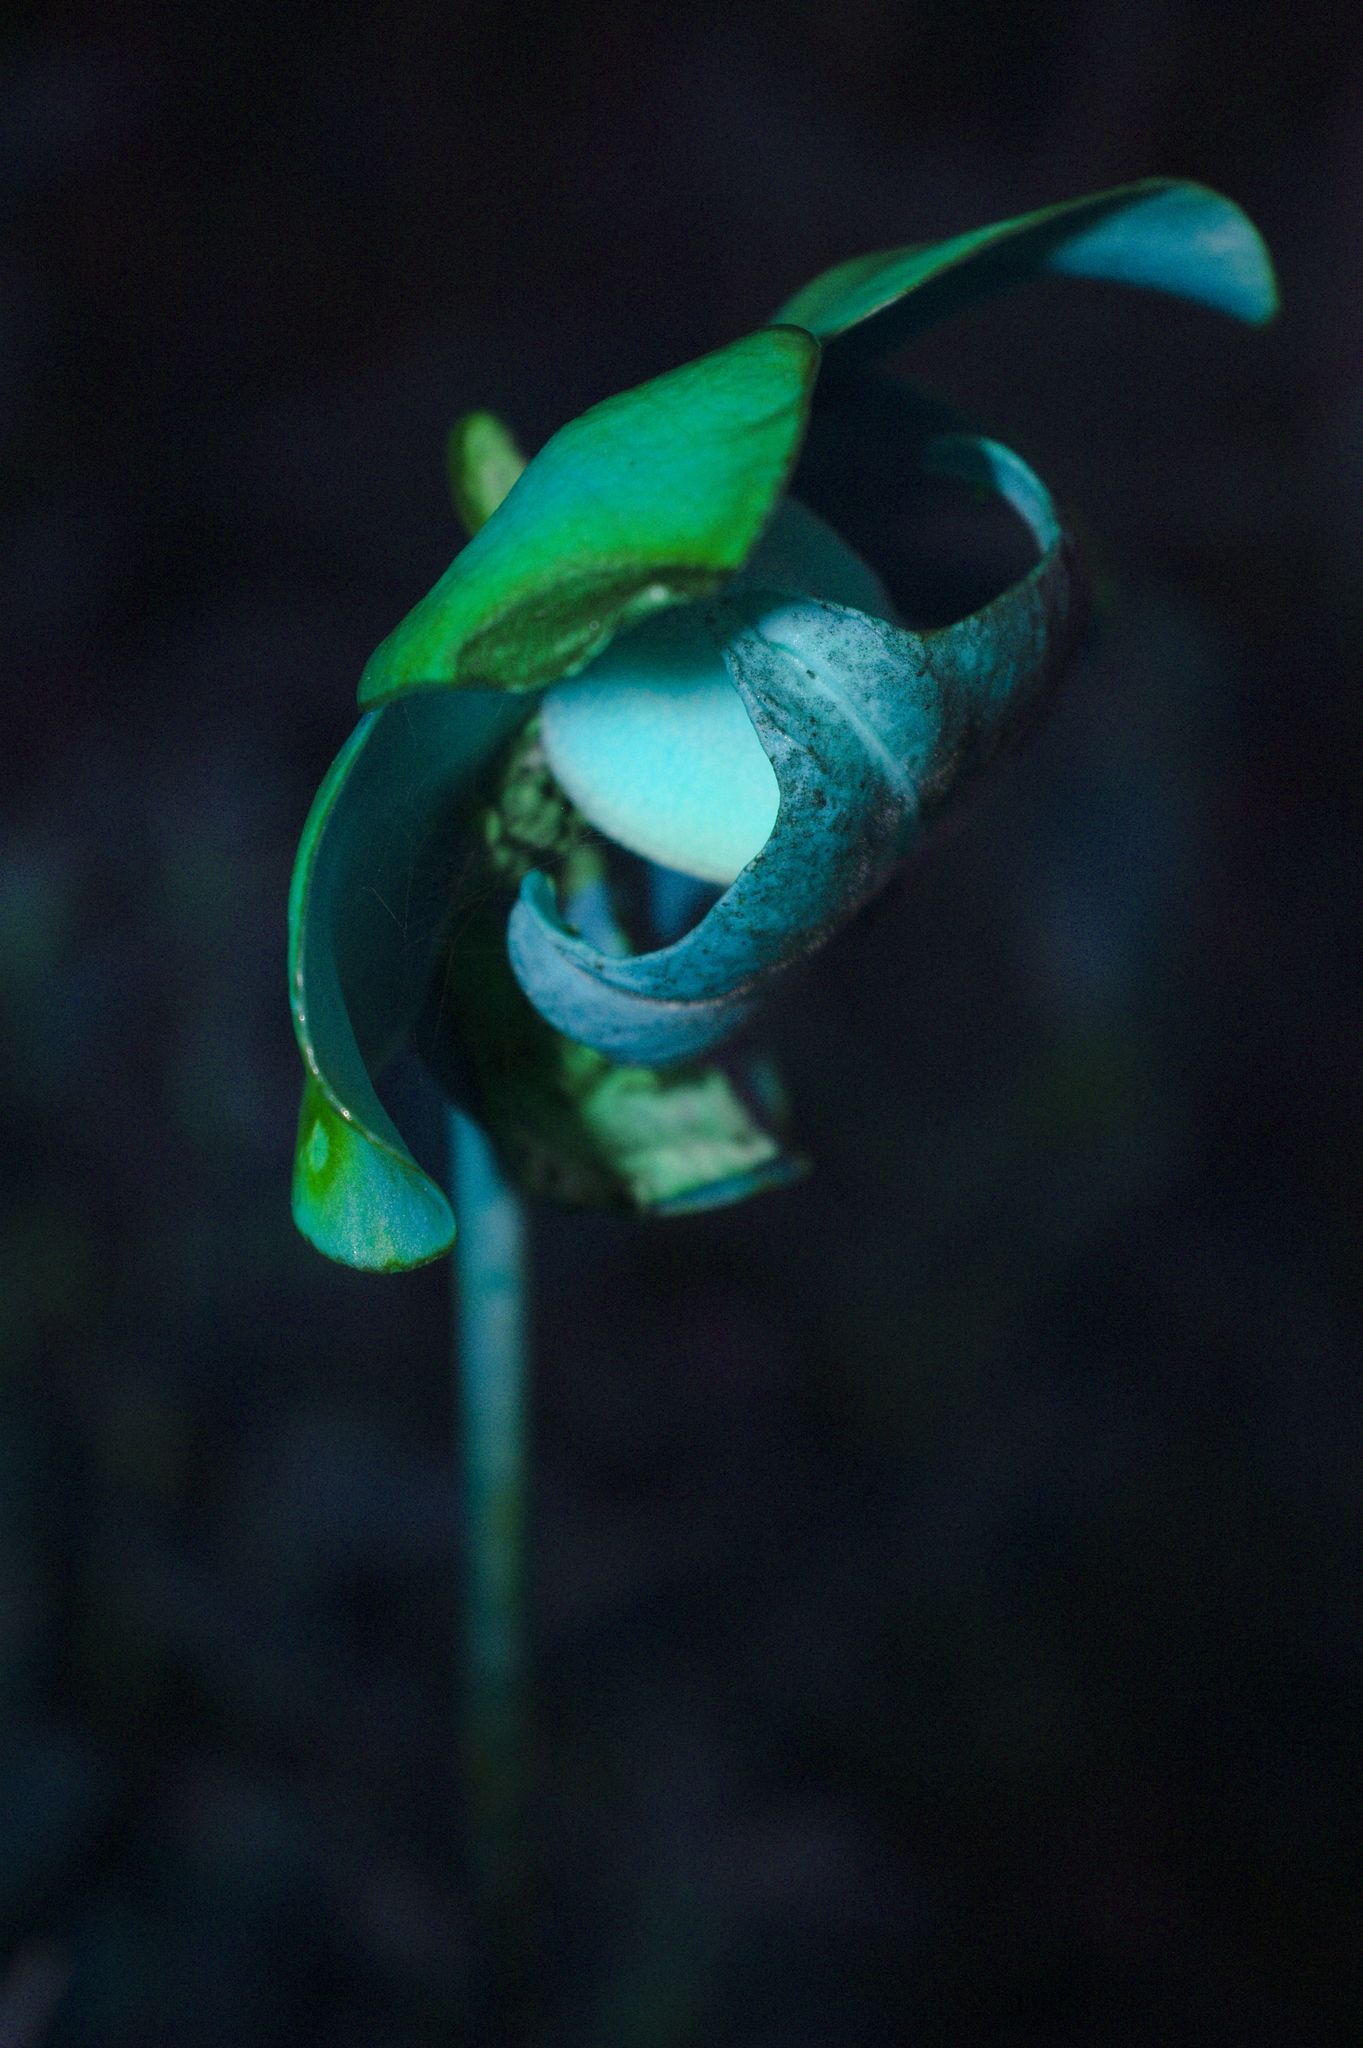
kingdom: Plantae
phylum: Tracheophyta
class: Magnoliopsida
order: Ericales
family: Sarraceniaceae
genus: Sarracenia
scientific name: Sarracenia purpurea
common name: Pitcherplant
